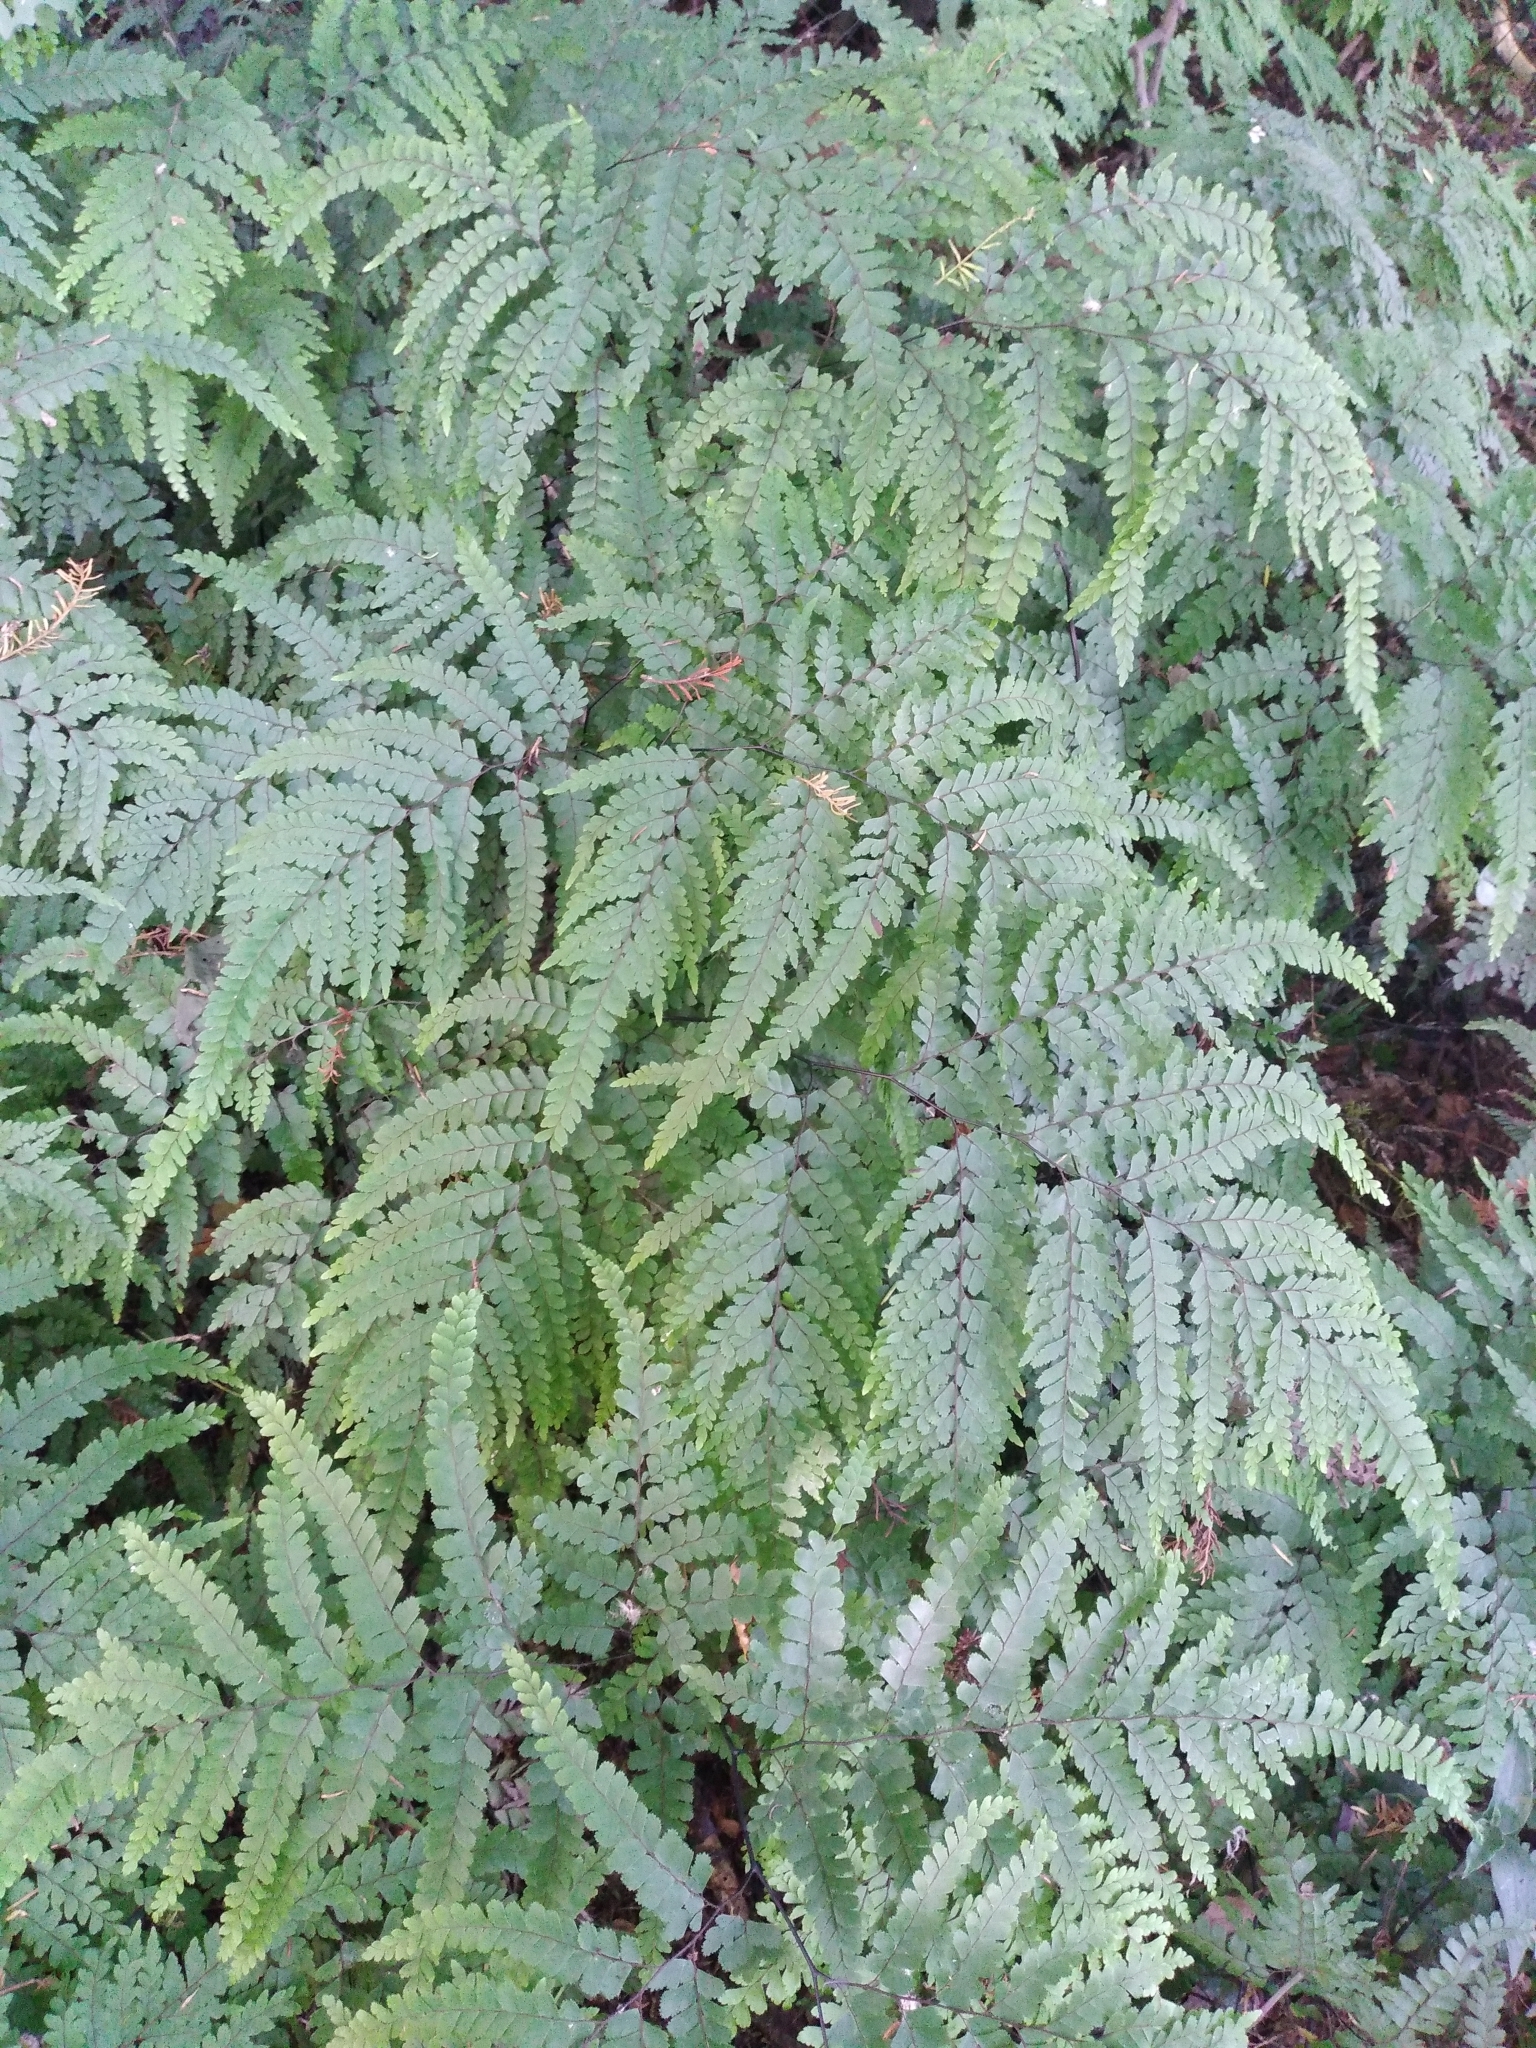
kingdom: Plantae
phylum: Tracheophyta
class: Polypodiopsida
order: Polypodiales
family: Pteridaceae
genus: Adiantum
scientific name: Adiantum formosum
